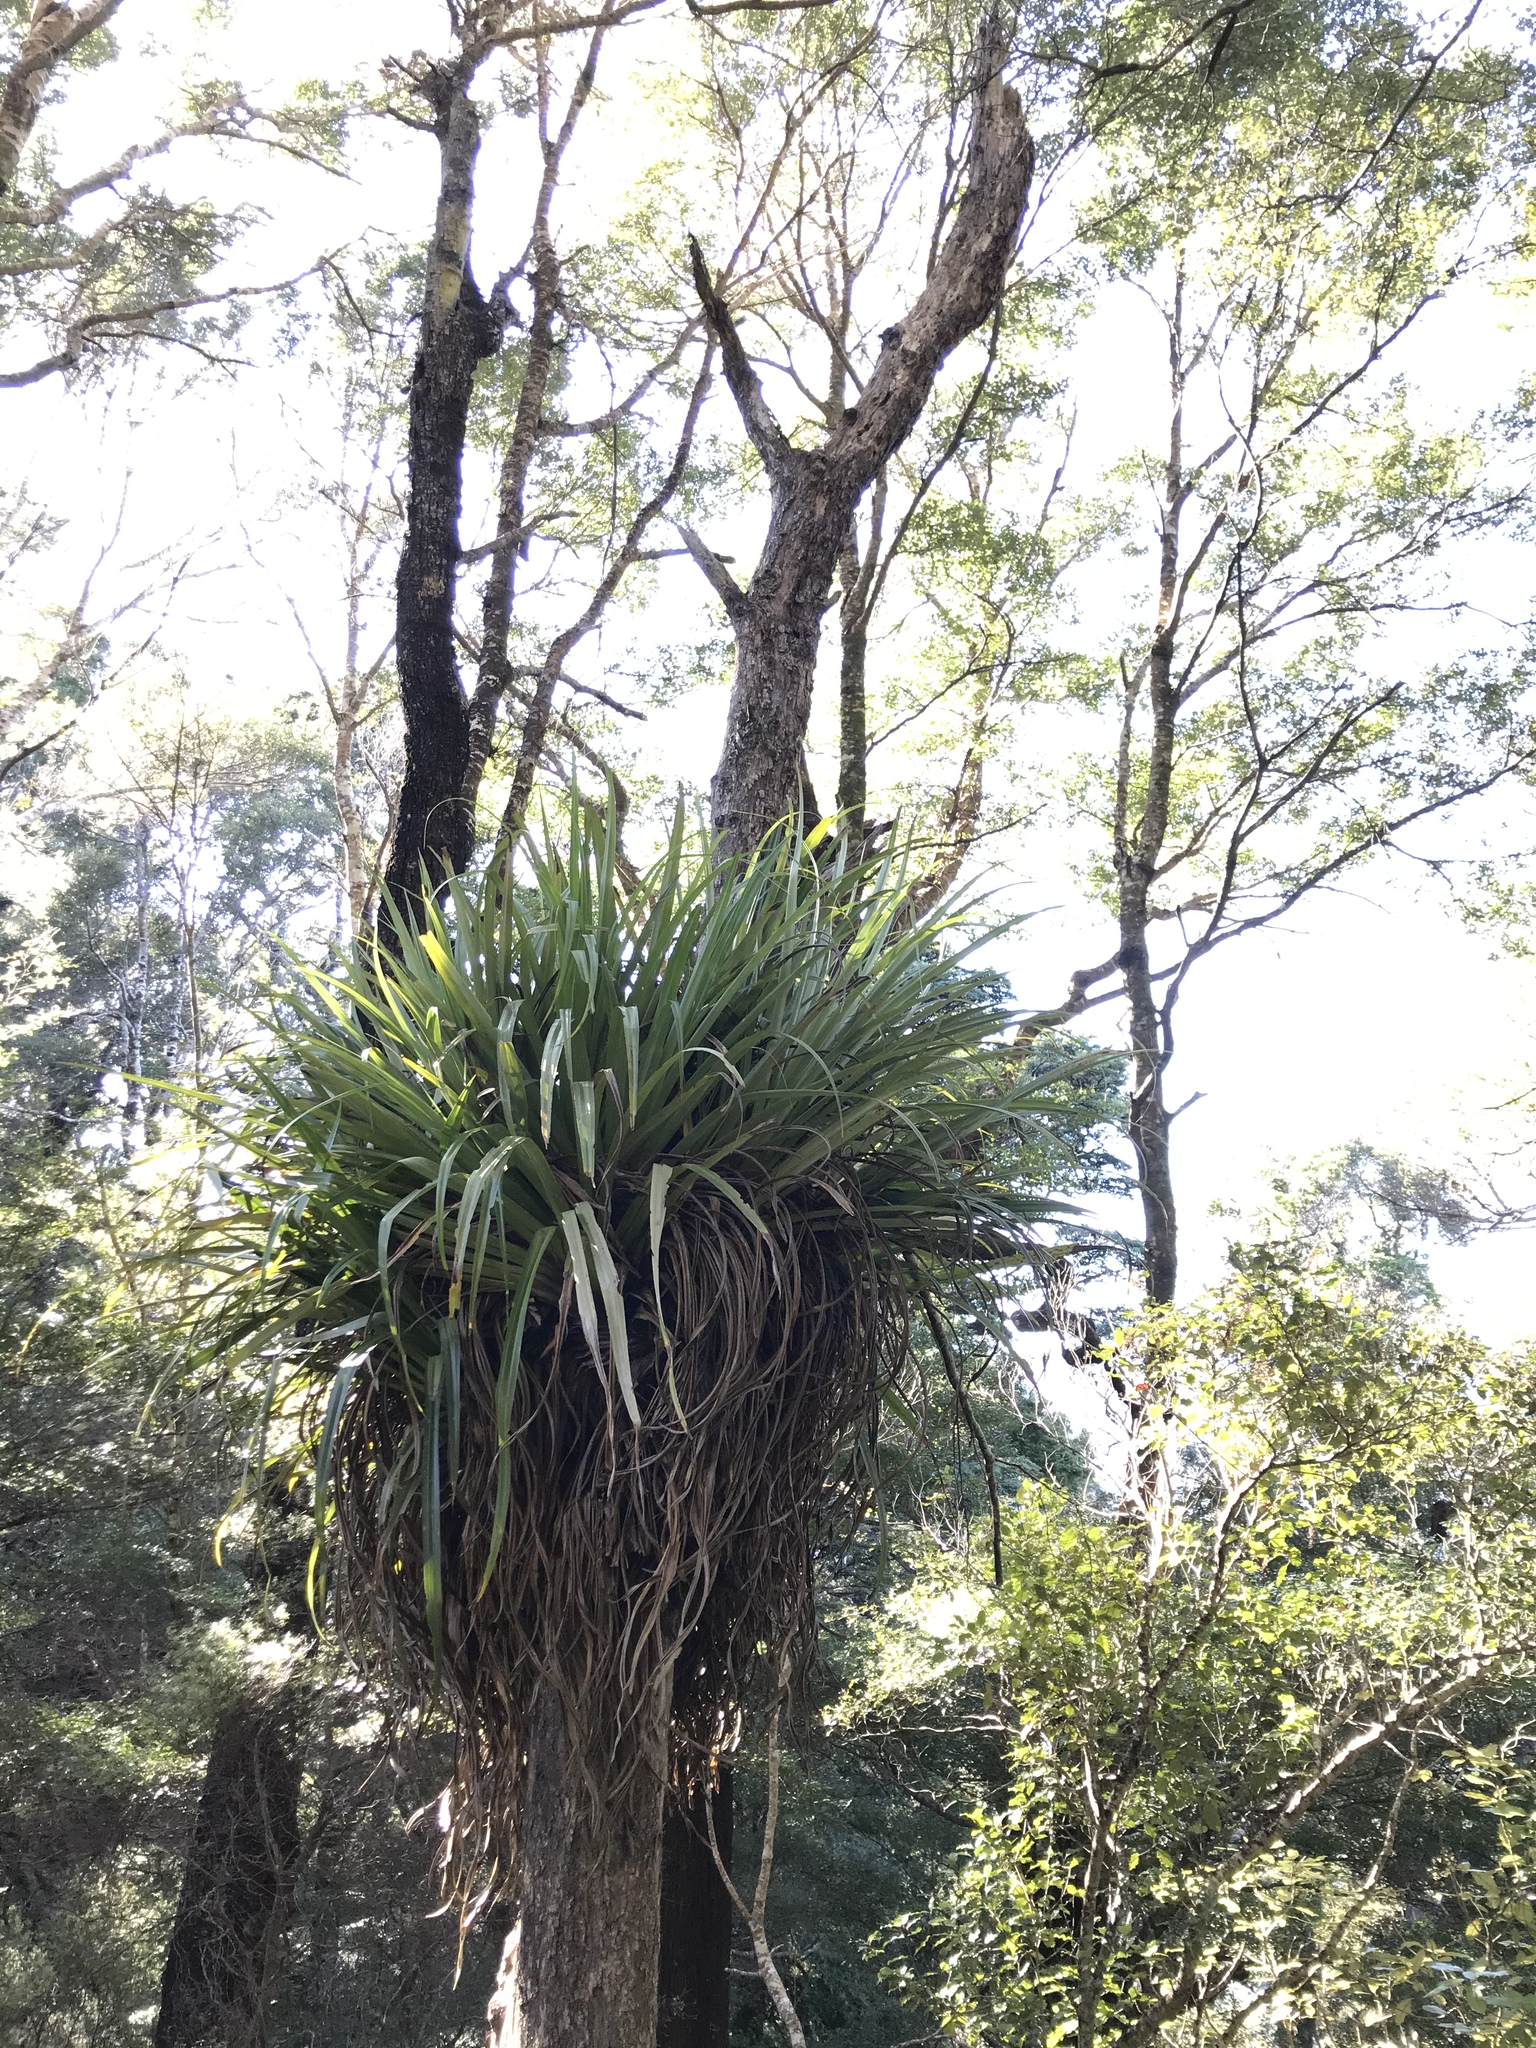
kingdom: Plantae
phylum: Tracheophyta
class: Liliopsida
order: Asparagales
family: Asteliaceae
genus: Astelia
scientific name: Astelia hastata
